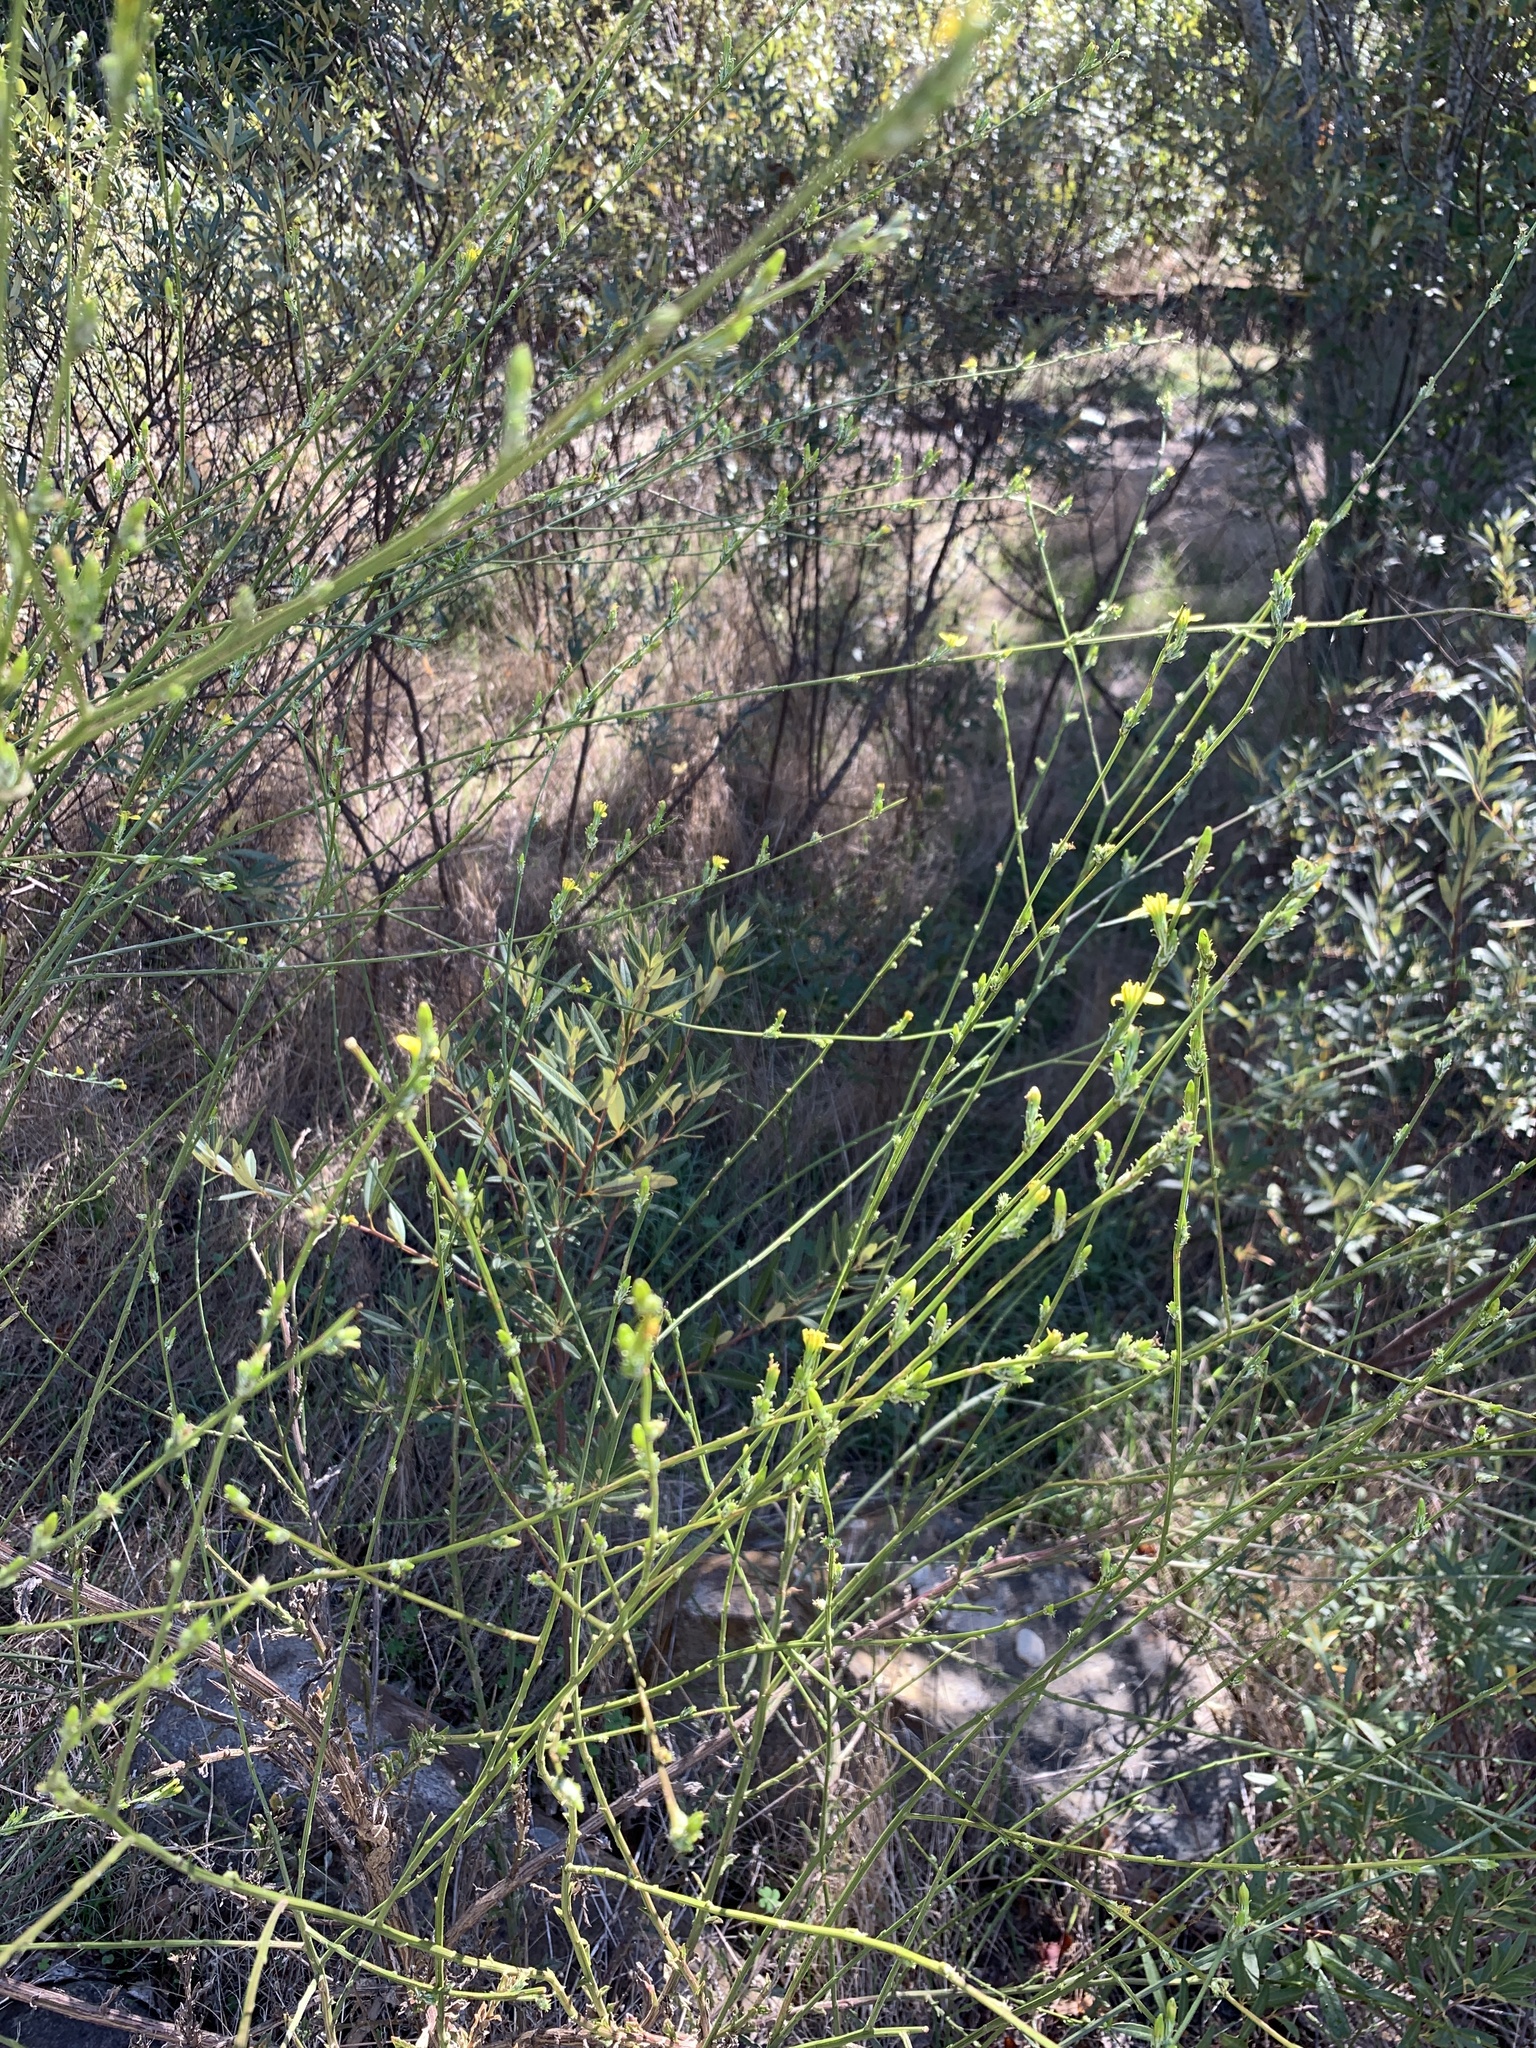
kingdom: Plantae
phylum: Tracheophyta
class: Magnoliopsida
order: Asterales
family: Asteraceae
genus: Senecio
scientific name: Senecio pubigerus
